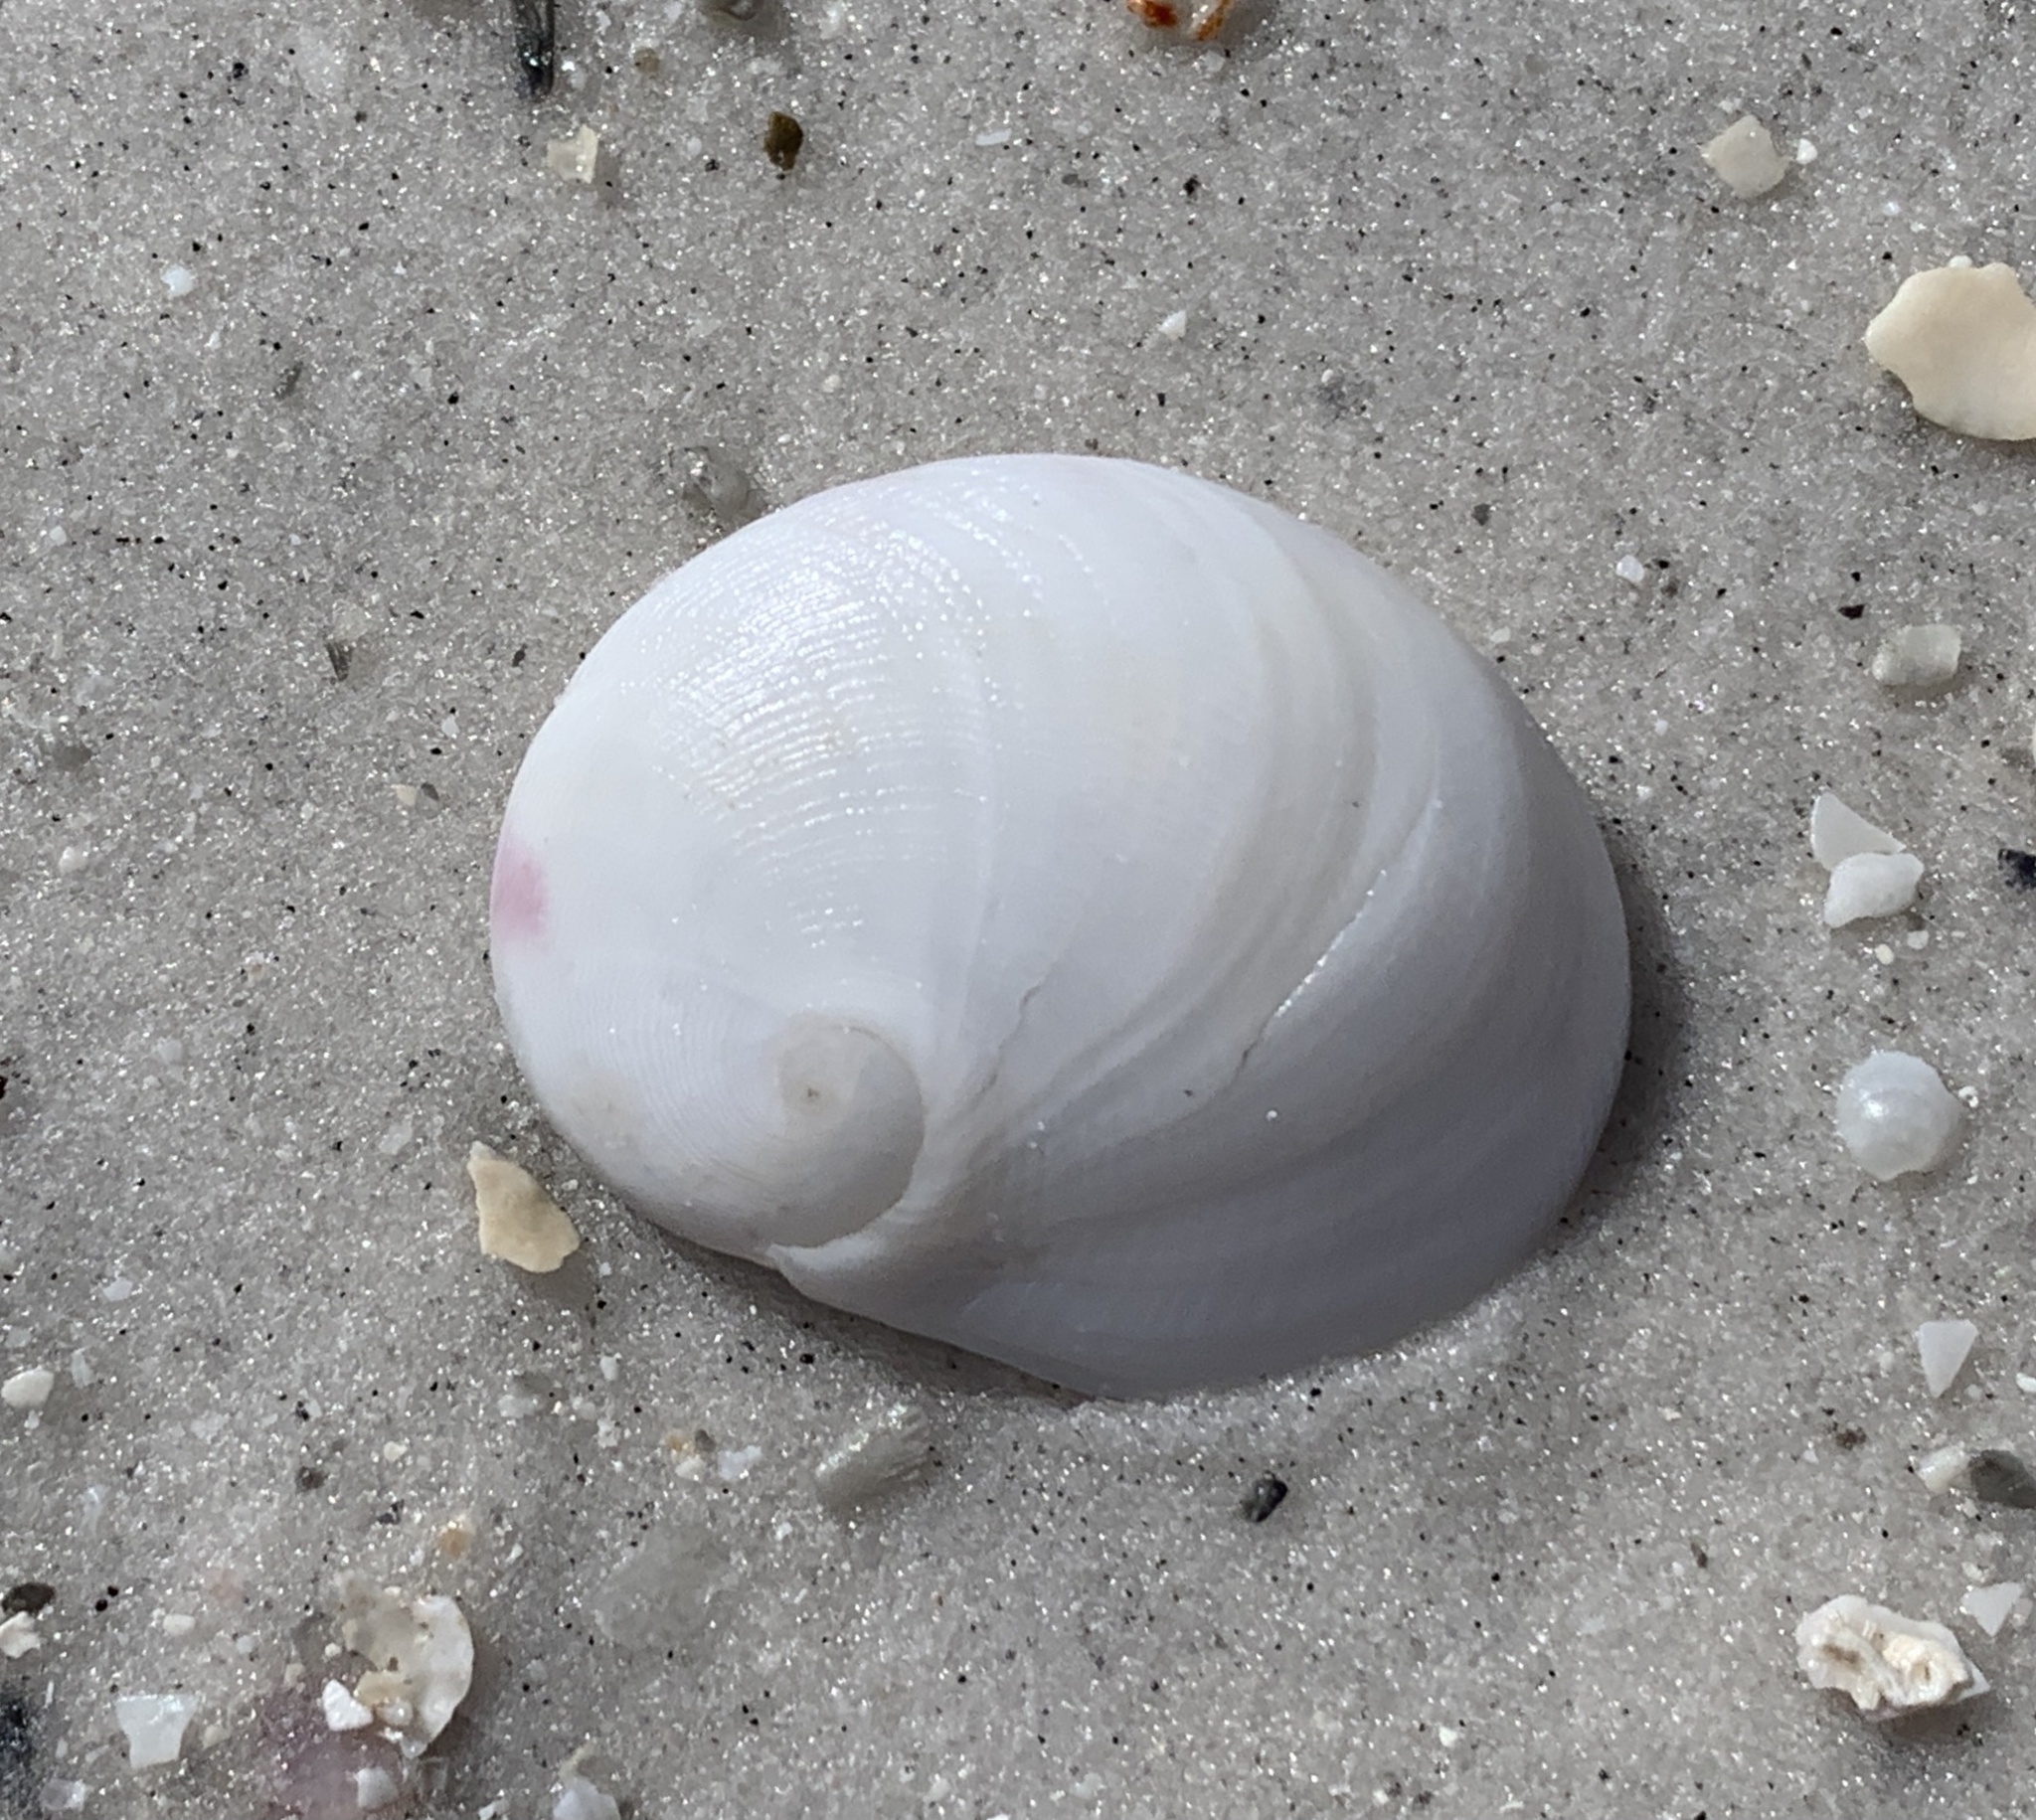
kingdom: Animalia
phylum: Mollusca
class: Gastropoda
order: Littorinimorpha
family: Naticidae
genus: Sinum
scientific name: Sinum perspectivum
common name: White baby ear
